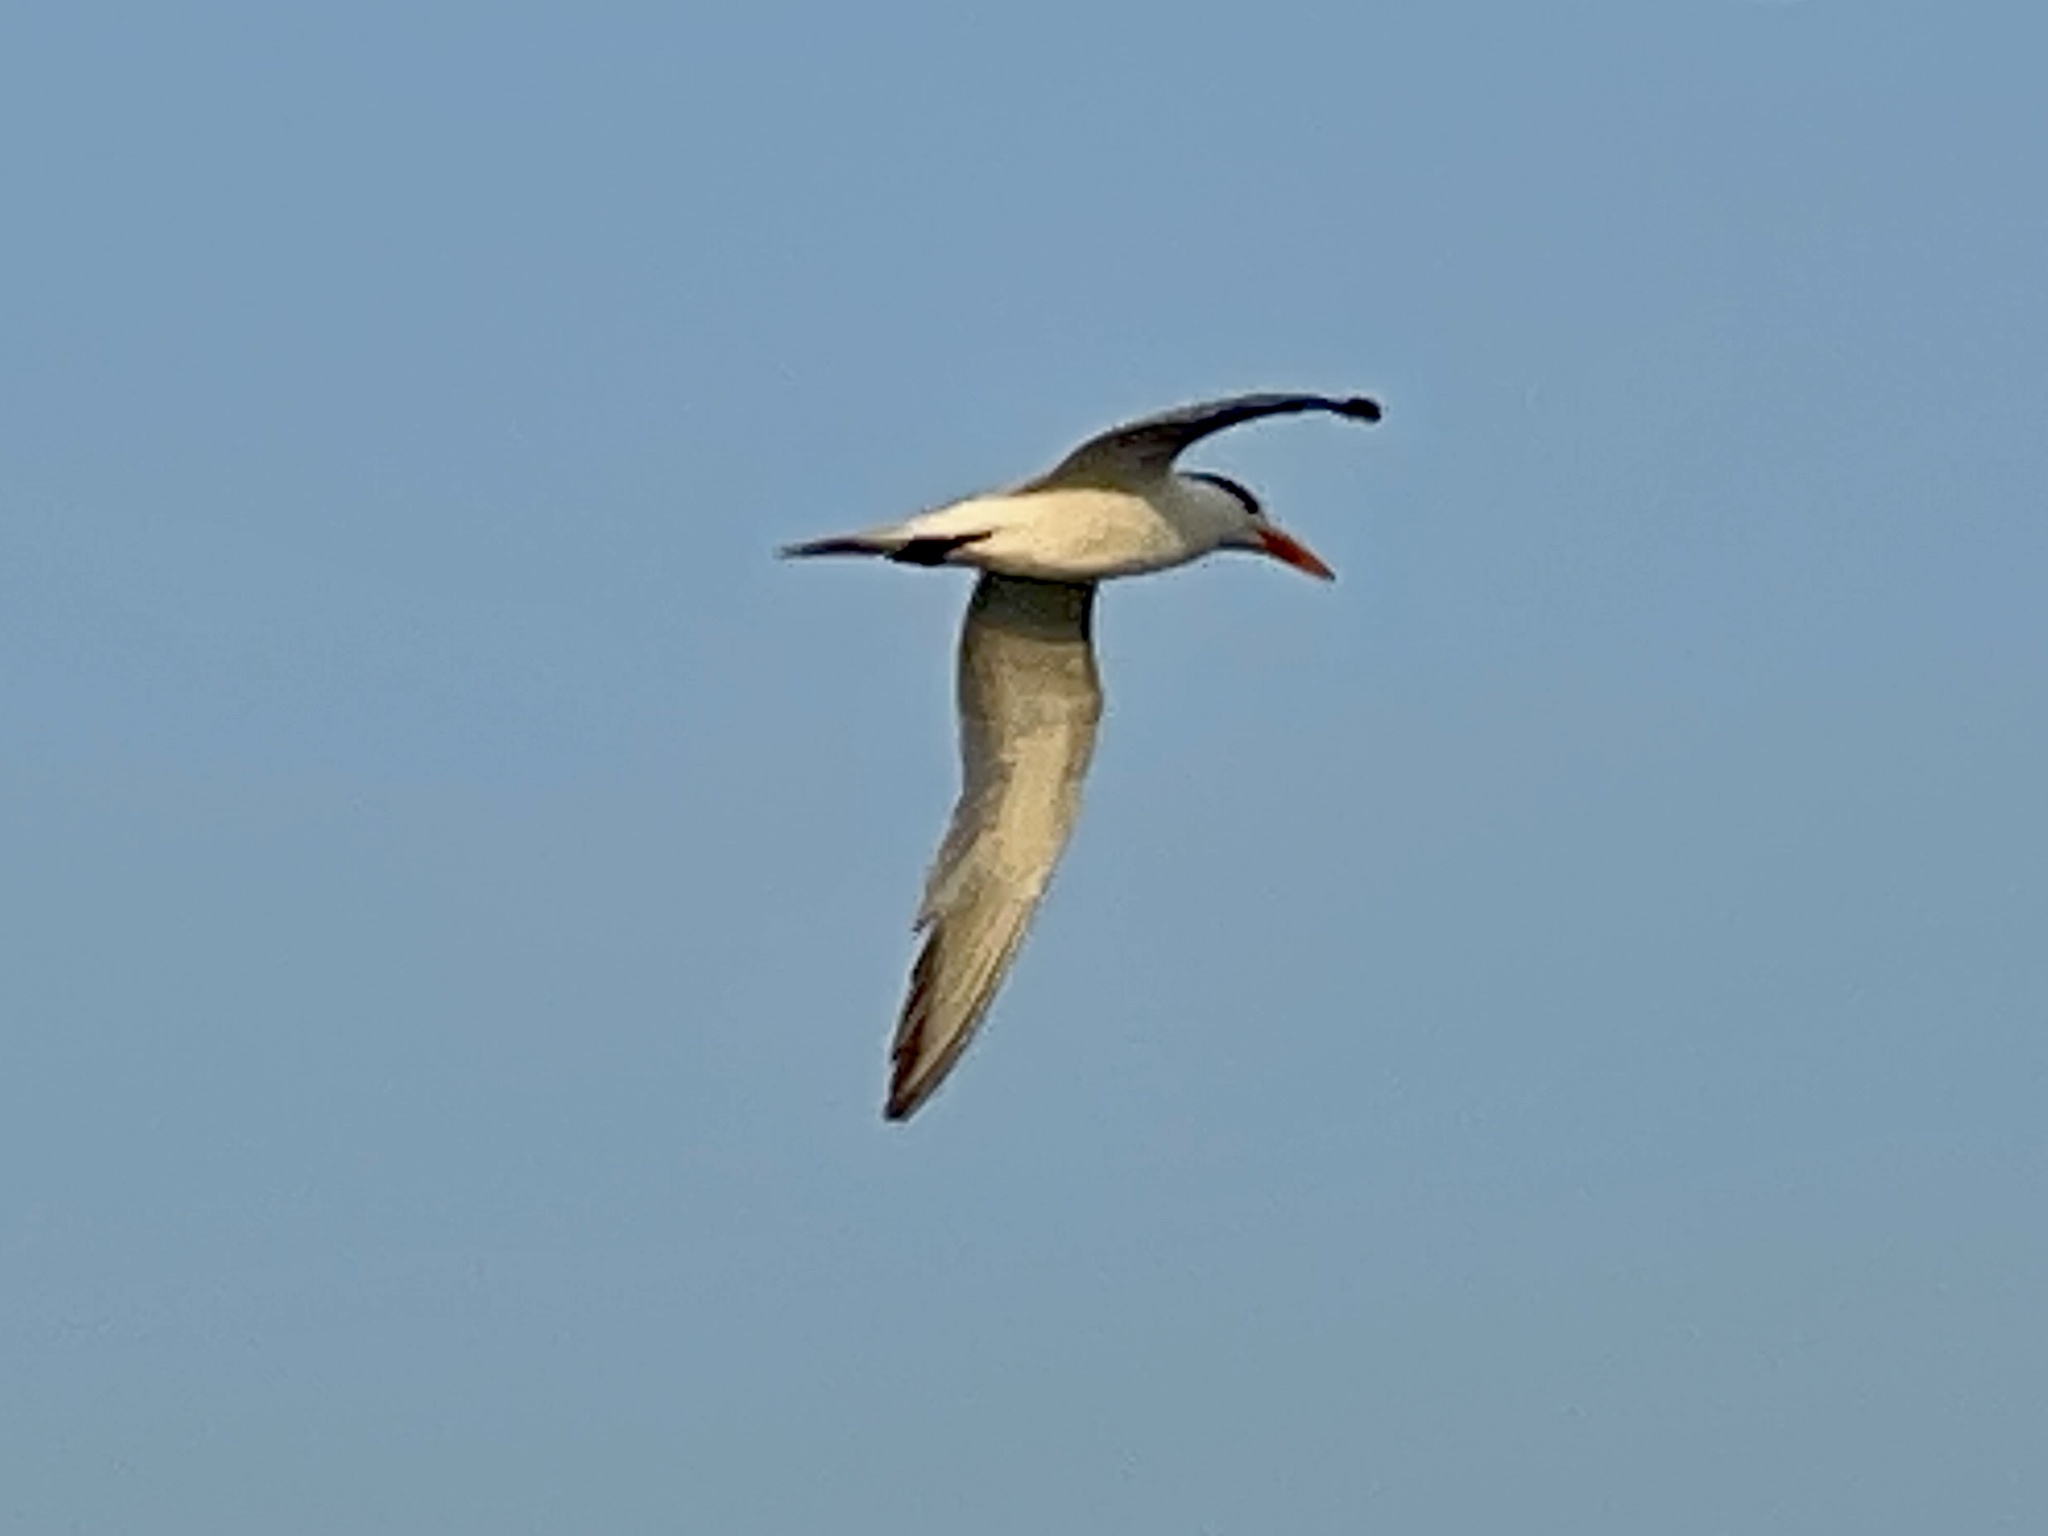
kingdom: Animalia
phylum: Chordata
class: Aves
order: Charadriiformes
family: Laridae
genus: Thalasseus
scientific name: Thalasseus maximus
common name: Royal tern
